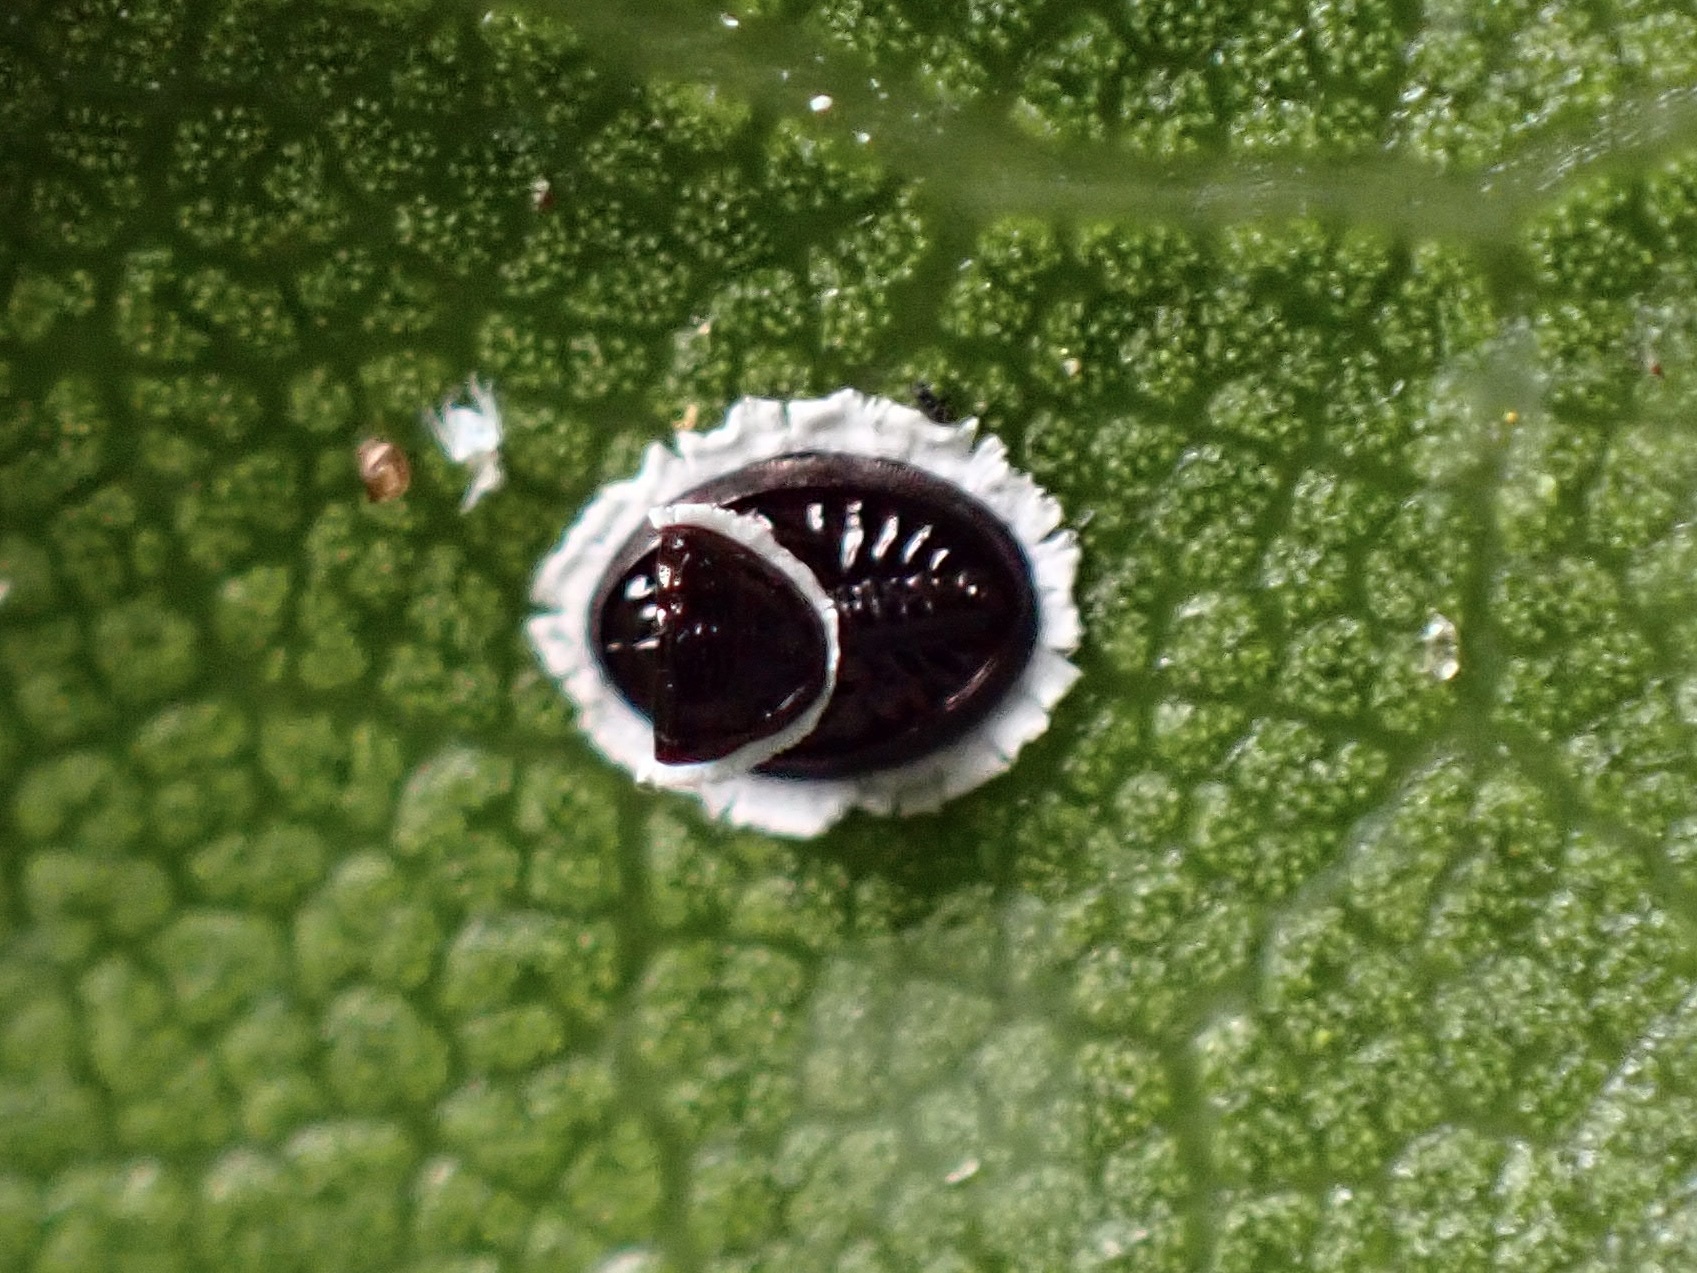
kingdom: Animalia
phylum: Arthropoda
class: Insecta
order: Hemiptera
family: Aleyrodidae
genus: Tetraleurodes
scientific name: Tetraleurodes perileuca
